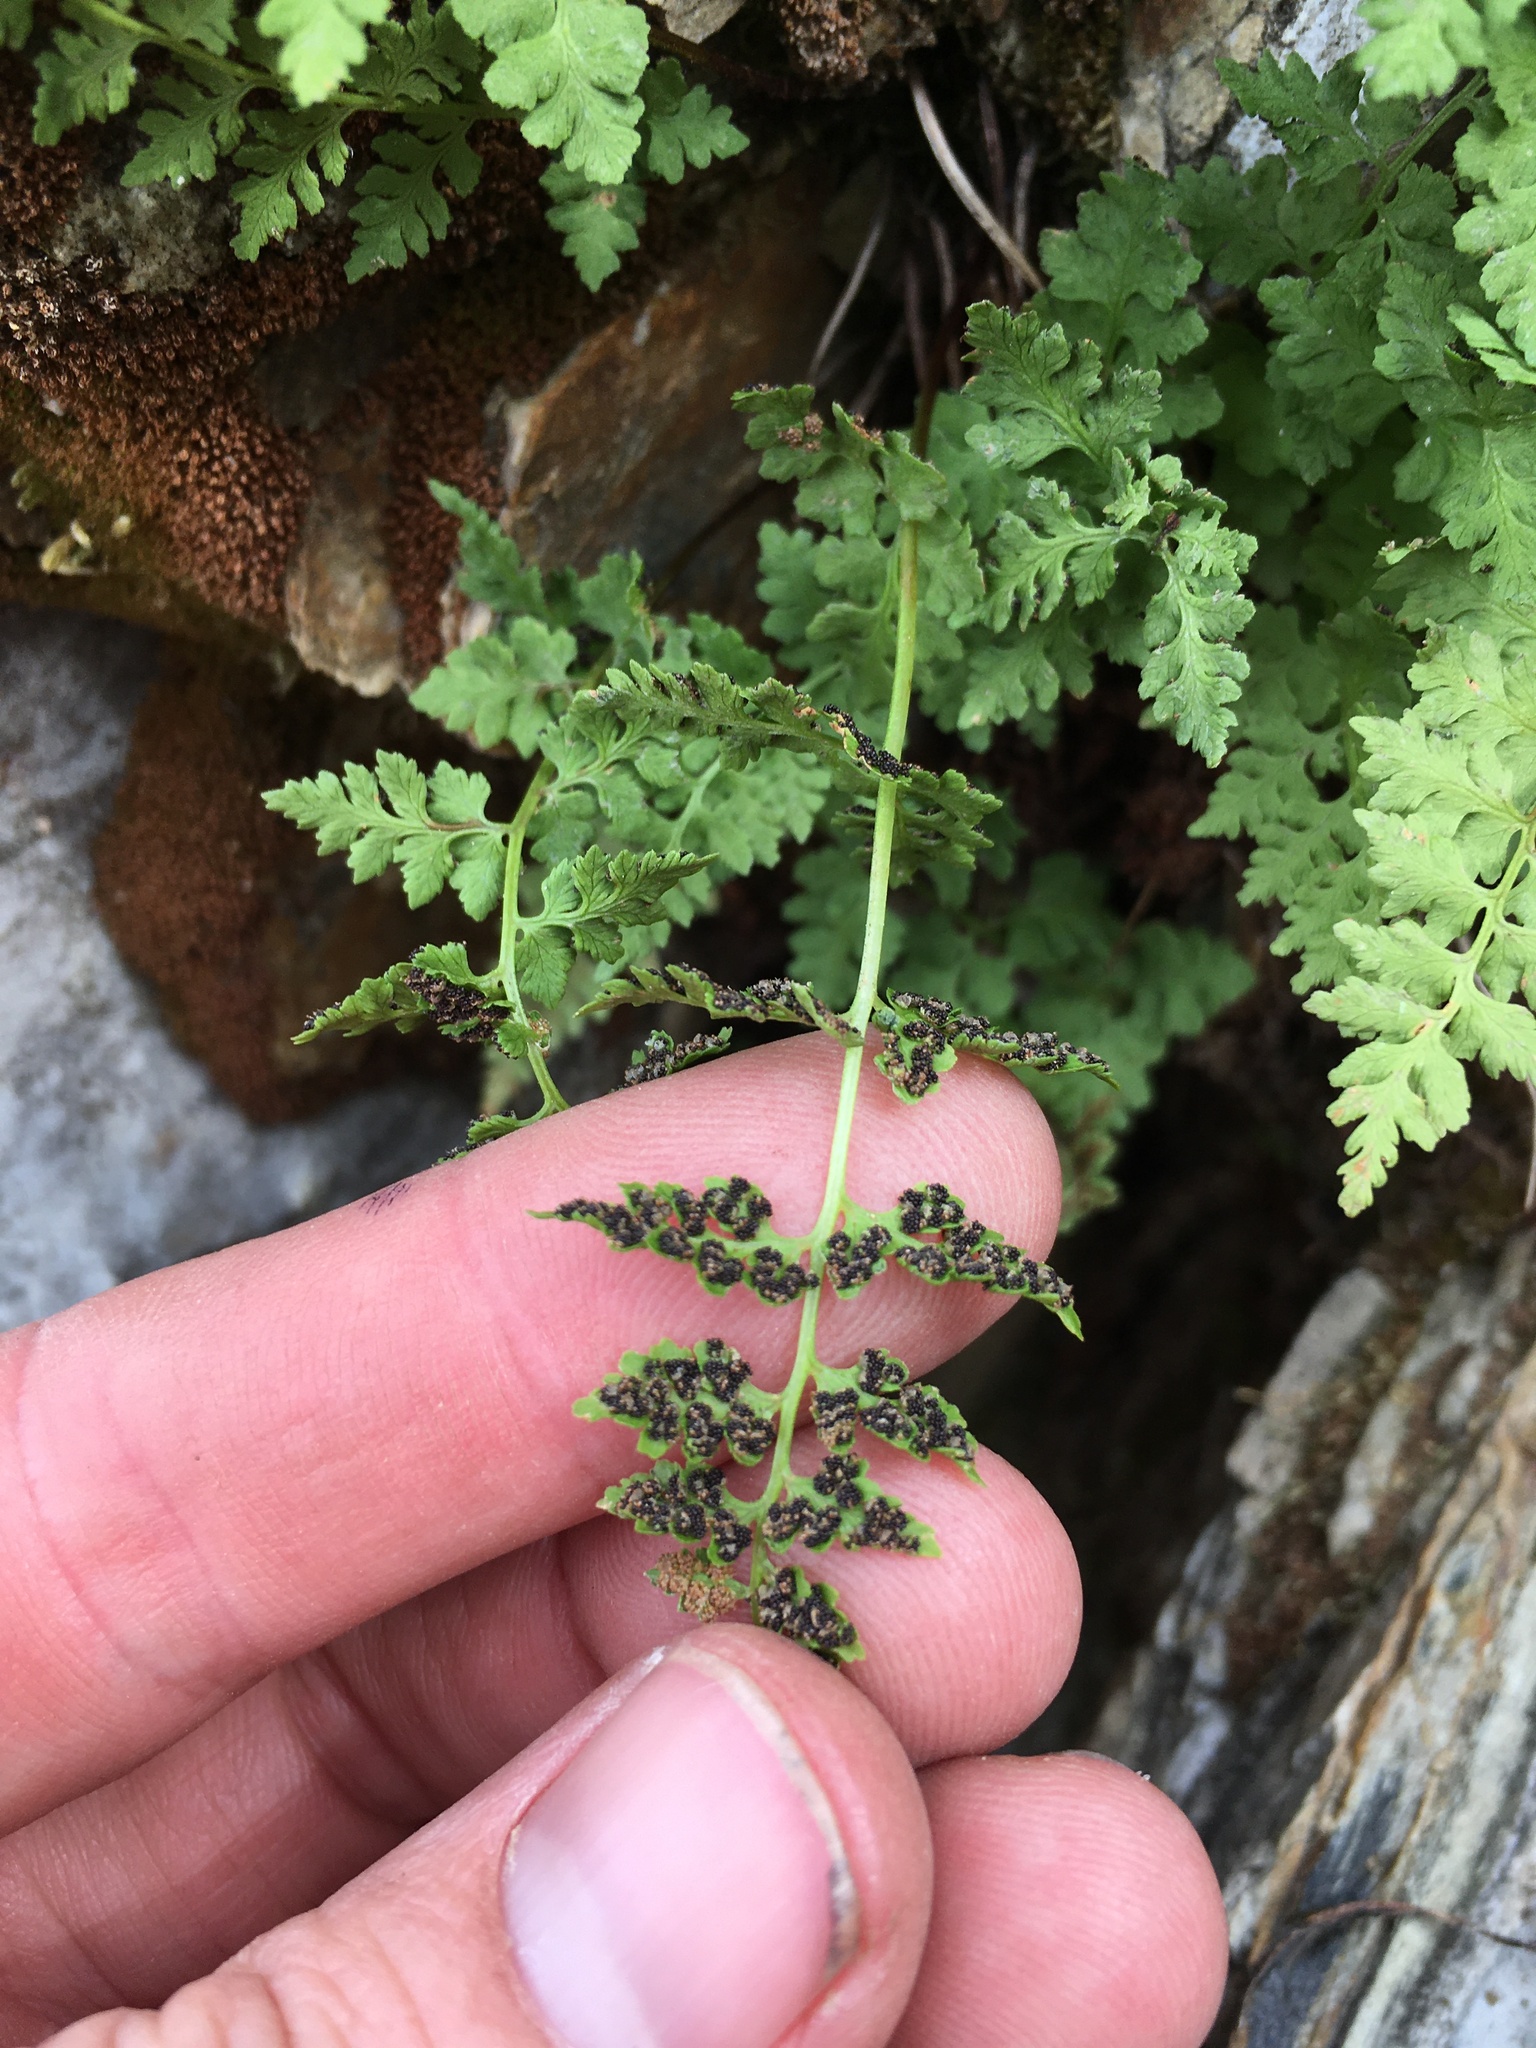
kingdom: Plantae
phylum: Tracheophyta
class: Polypodiopsida
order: Polypodiales
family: Cystopteridaceae
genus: Cystopteris
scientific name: Cystopteris fragilis
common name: Brittle bladder fern
